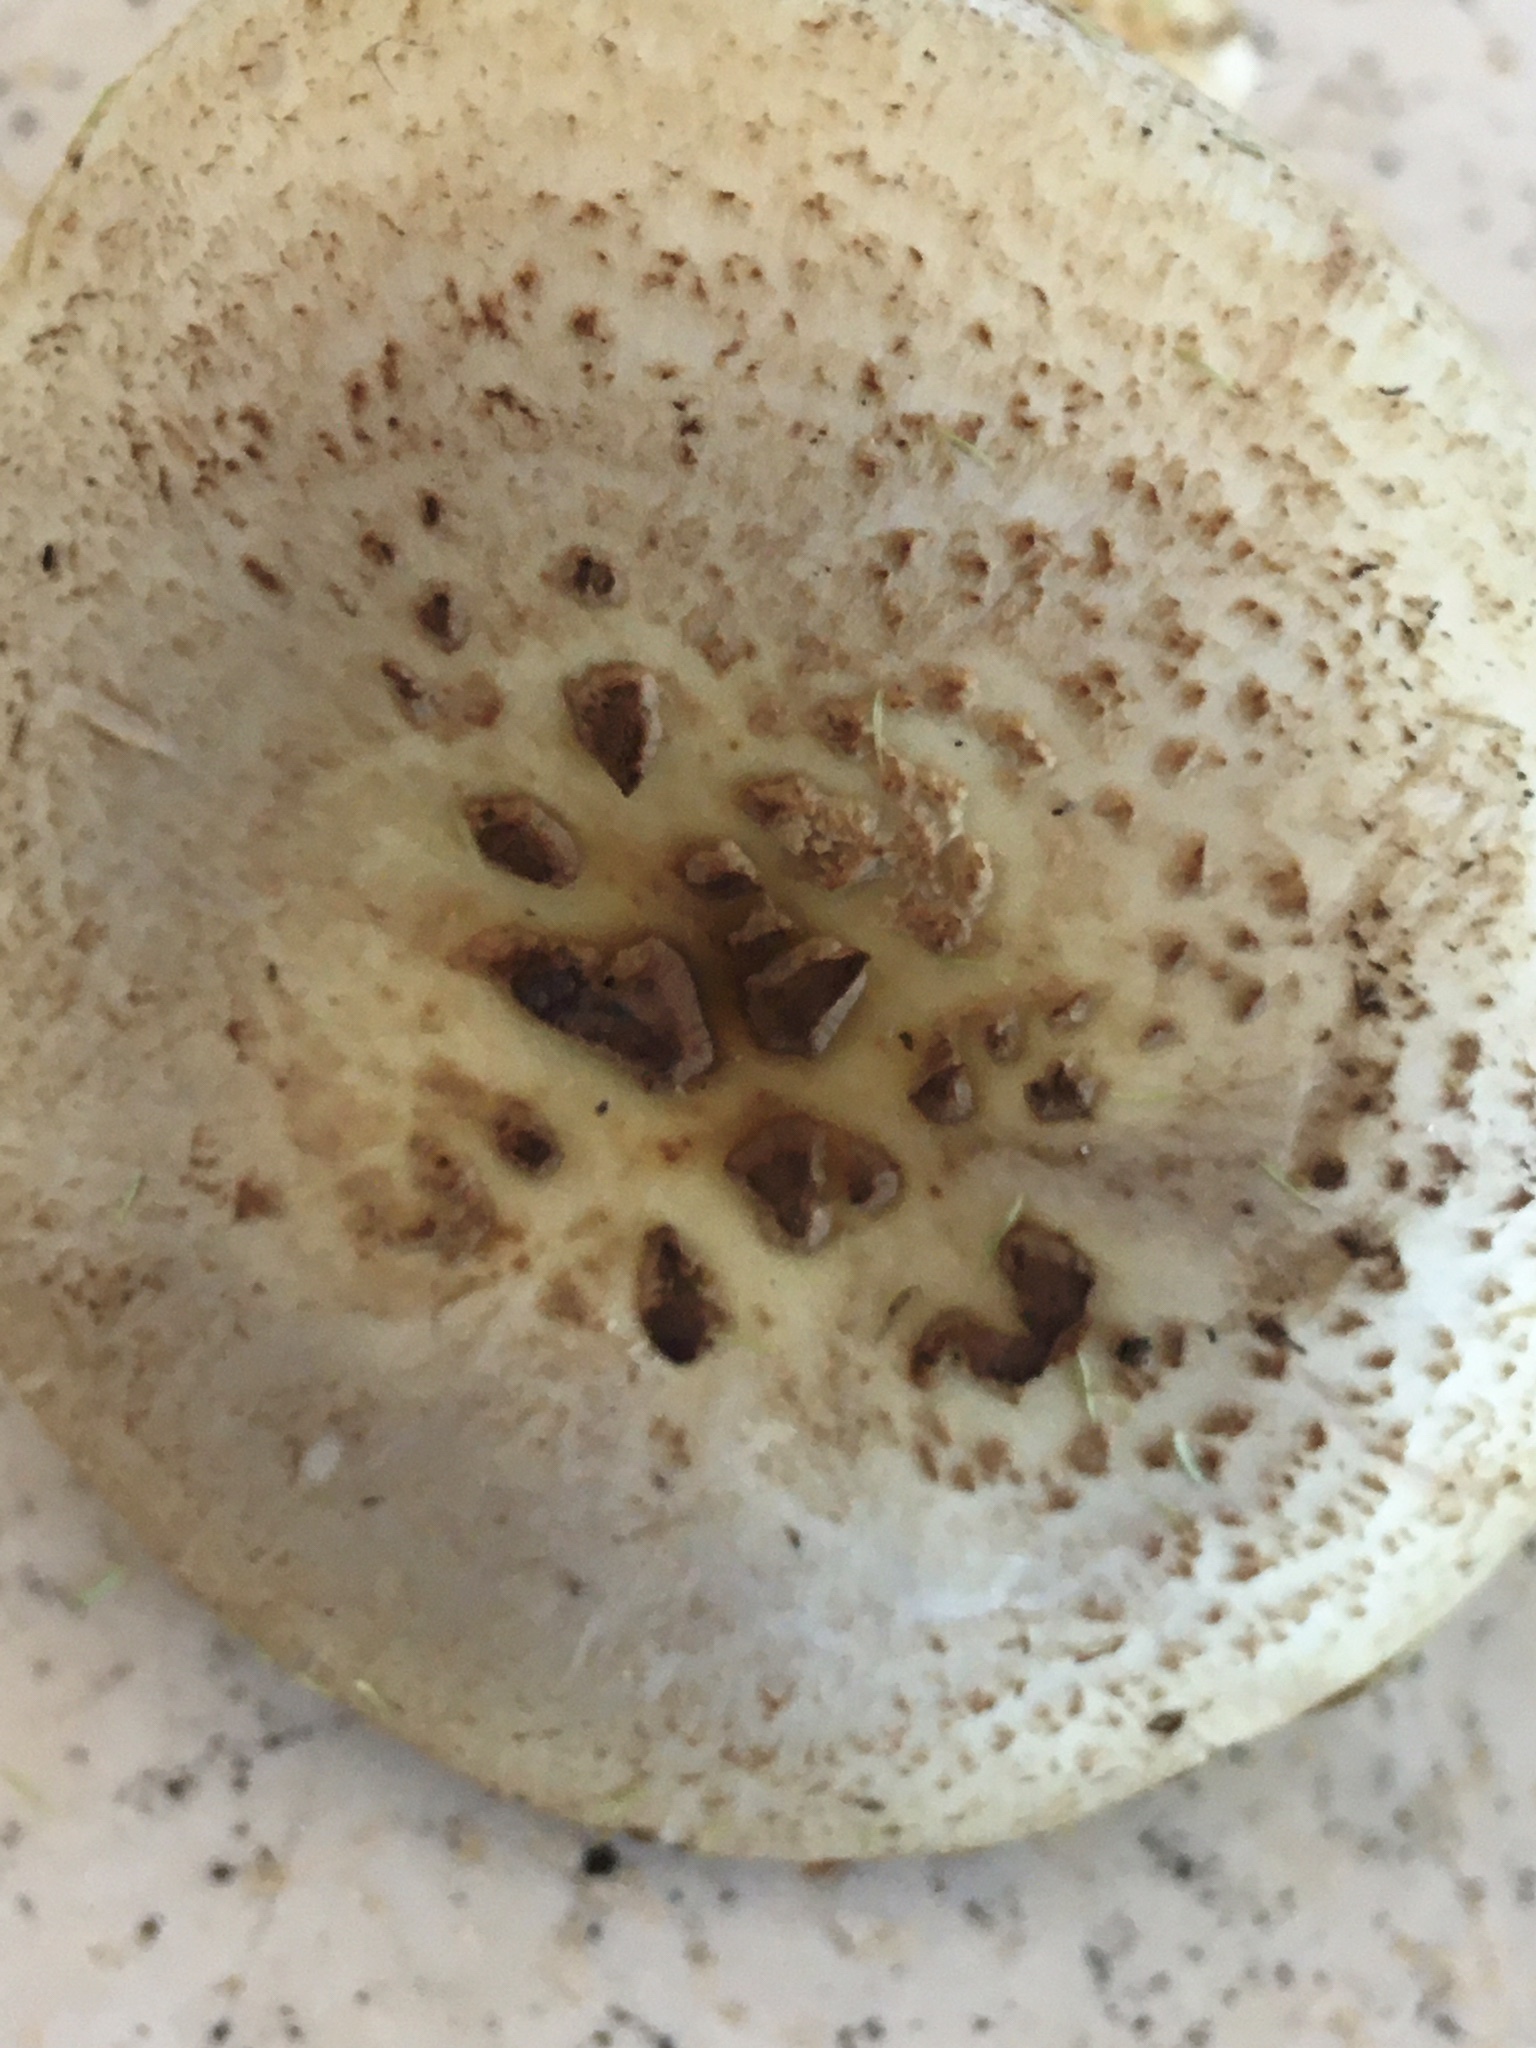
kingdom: Fungi
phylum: Basidiomycota
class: Agaricomycetes
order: Agaricales
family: Amanitaceae
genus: Amanita
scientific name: Amanita citrina
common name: False death-cap
